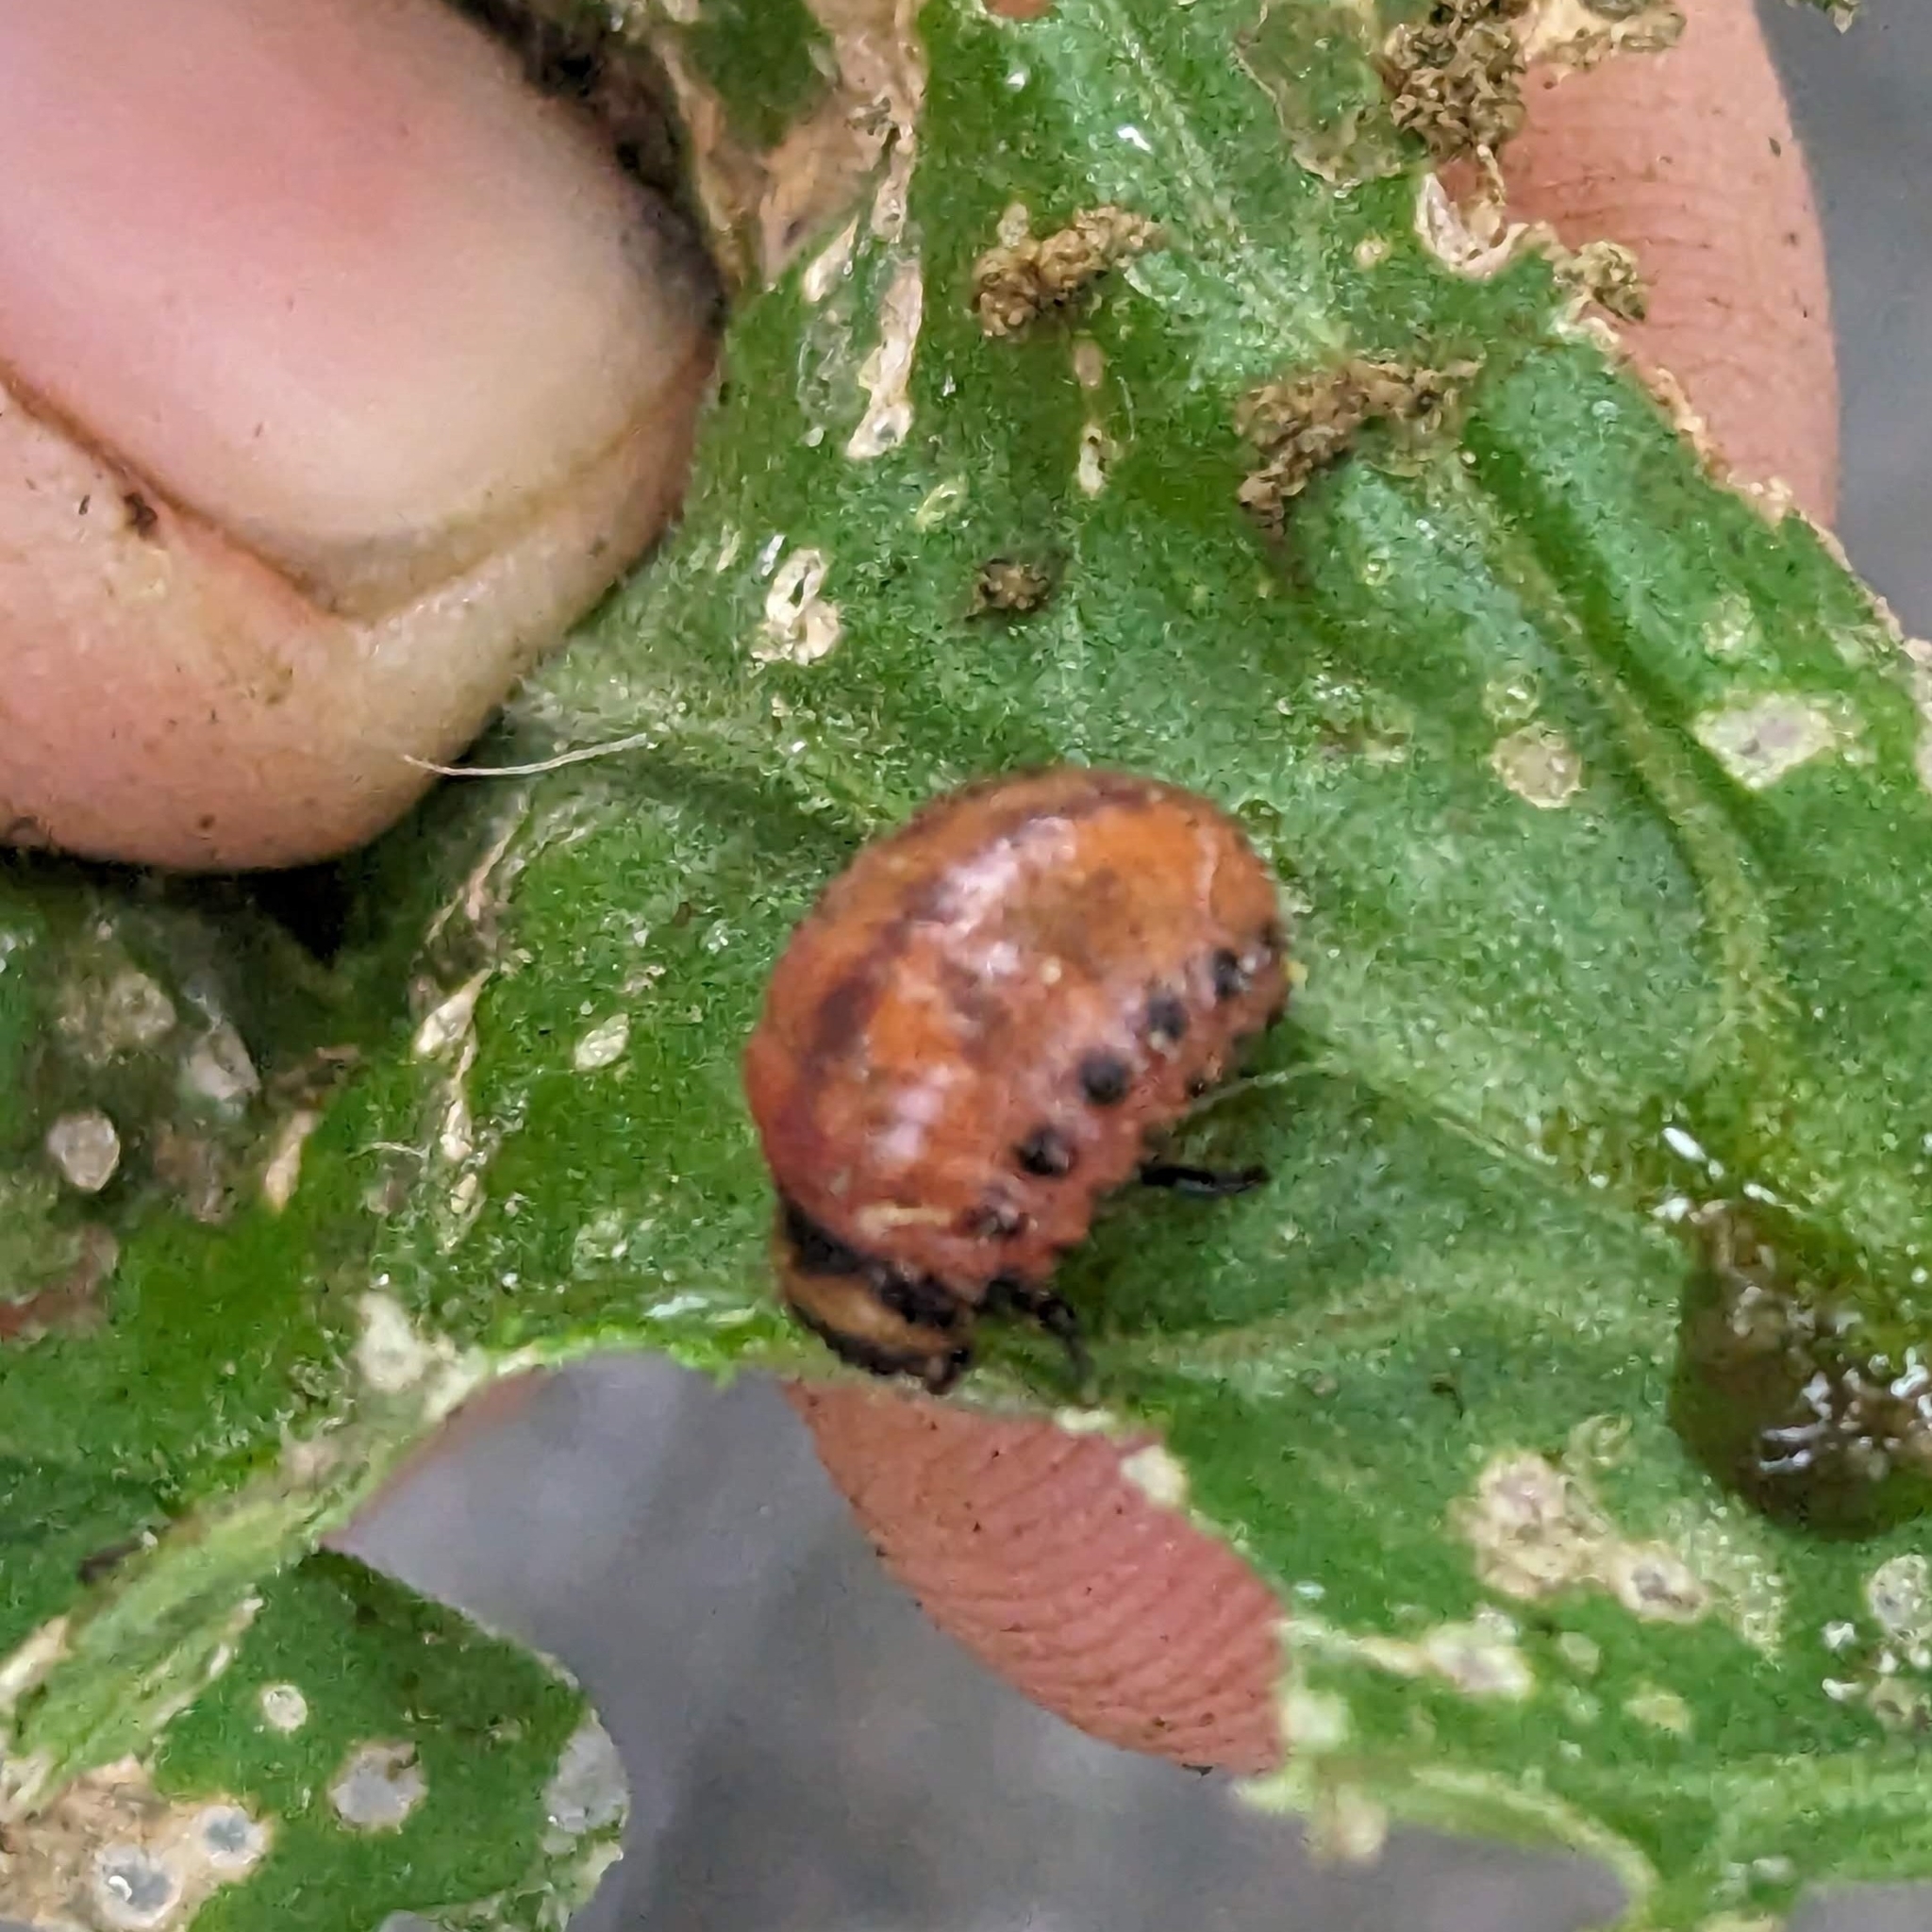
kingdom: Animalia
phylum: Arthropoda
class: Insecta
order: Coleoptera
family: Chrysomelidae
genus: Leptinotarsa
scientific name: Leptinotarsa decemlineata
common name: Colorado potato beetle
